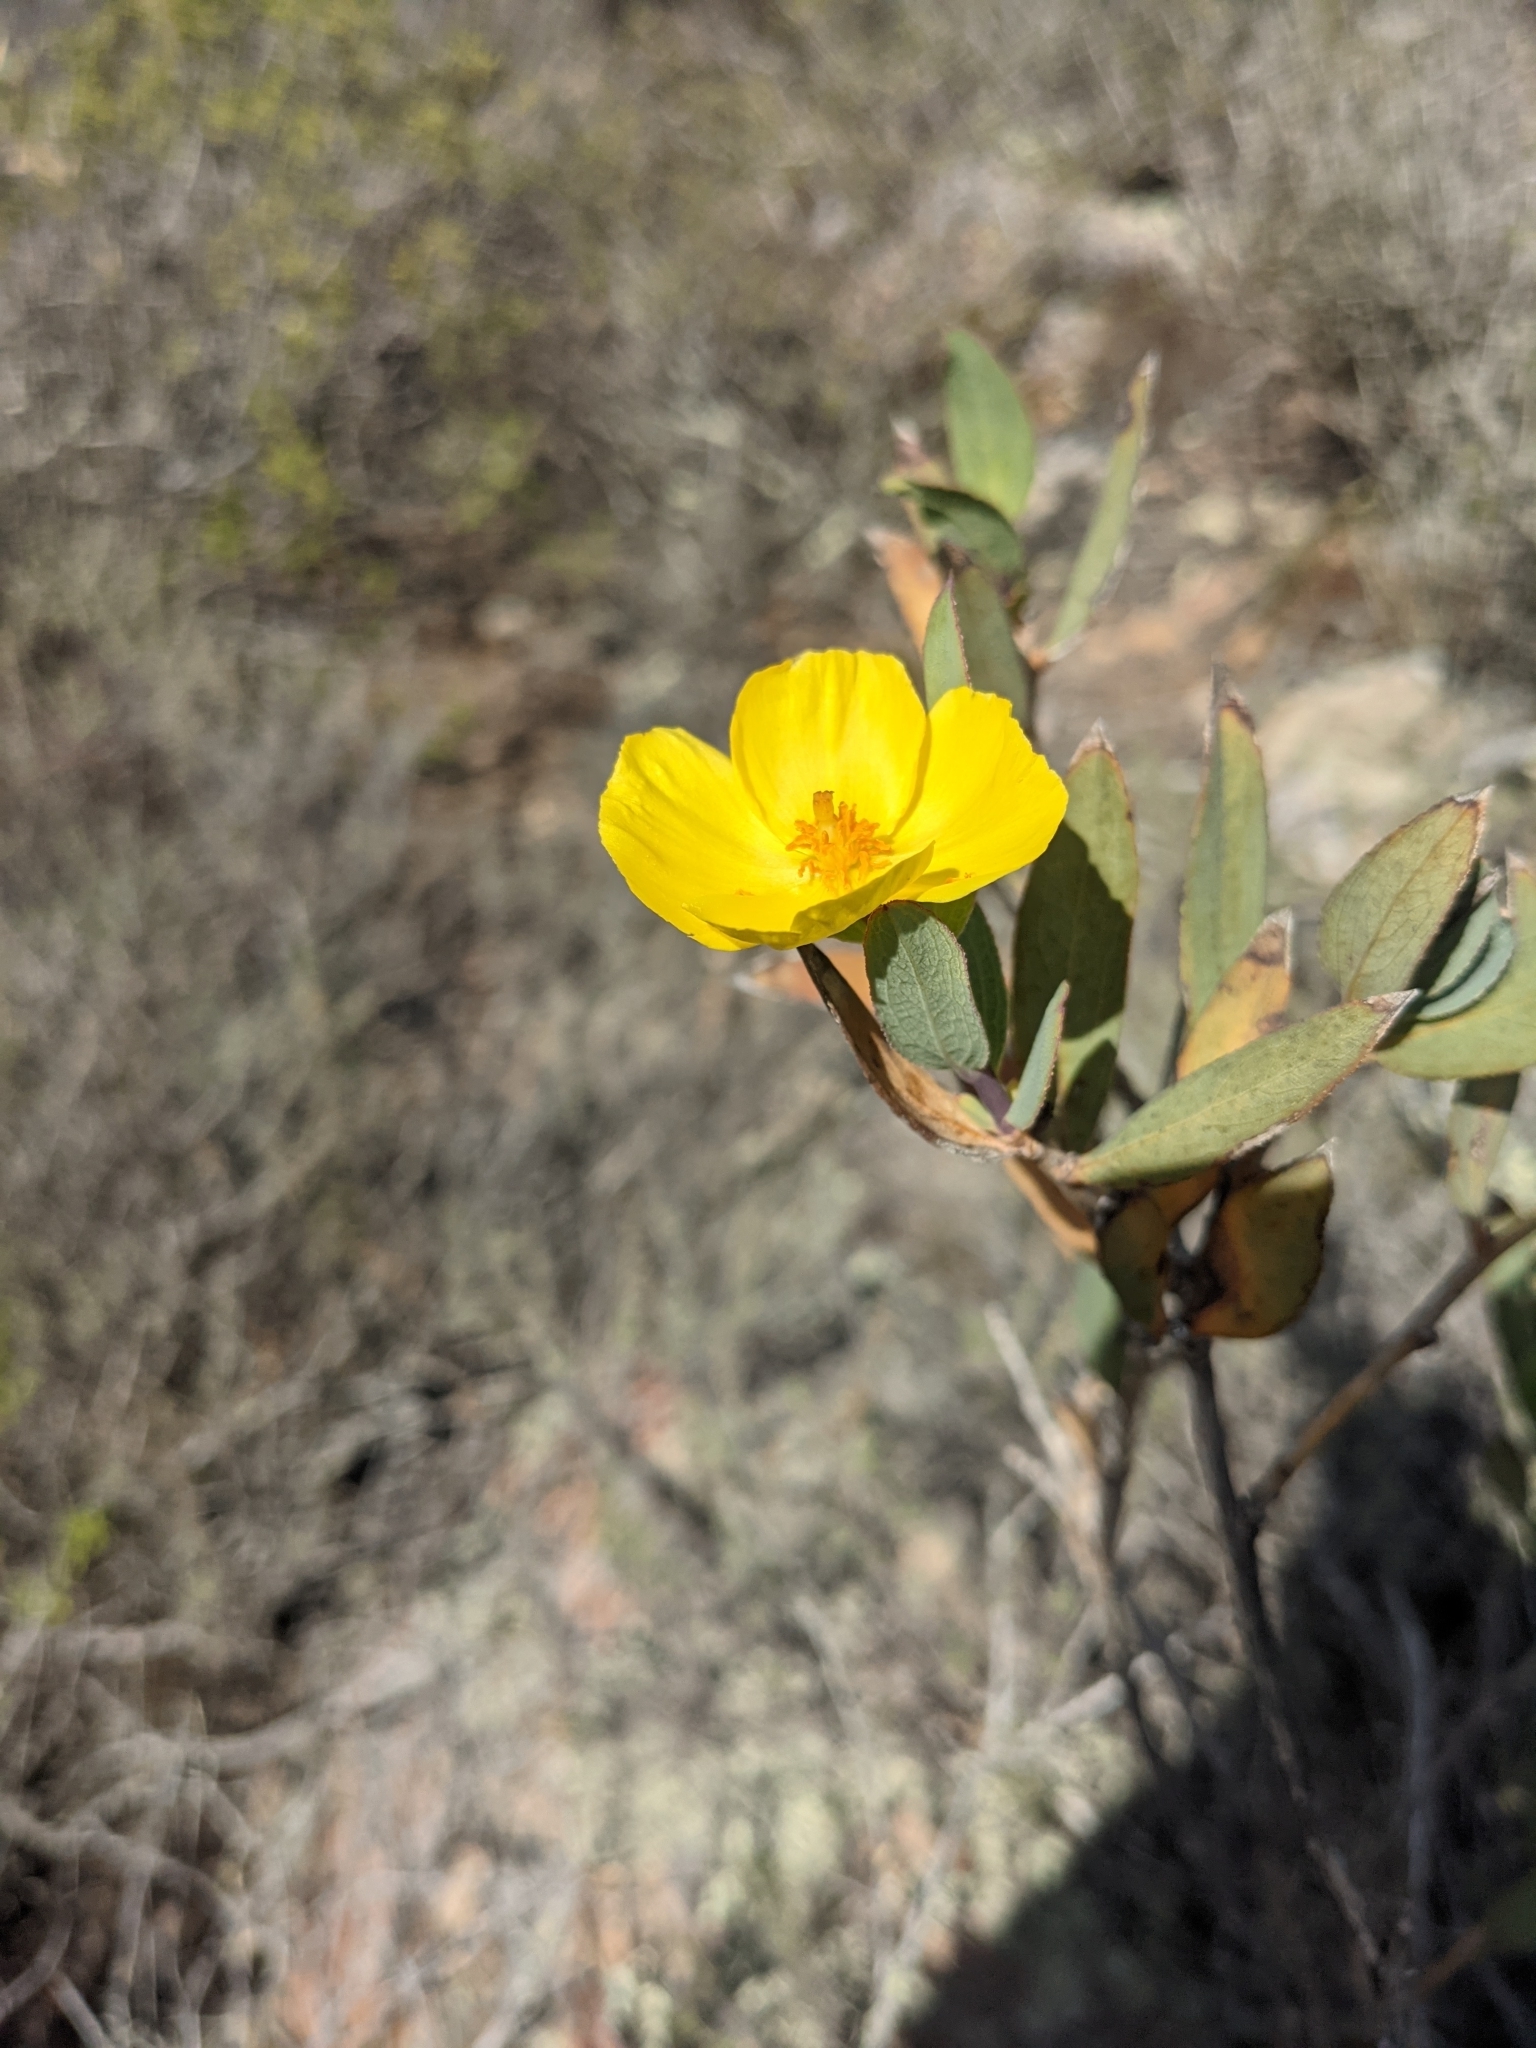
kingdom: Plantae
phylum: Tracheophyta
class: Magnoliopsida
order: Ranunculales
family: Papaveraceae
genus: Dendromecon
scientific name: Dendromecon rigida
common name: Tree poppy
